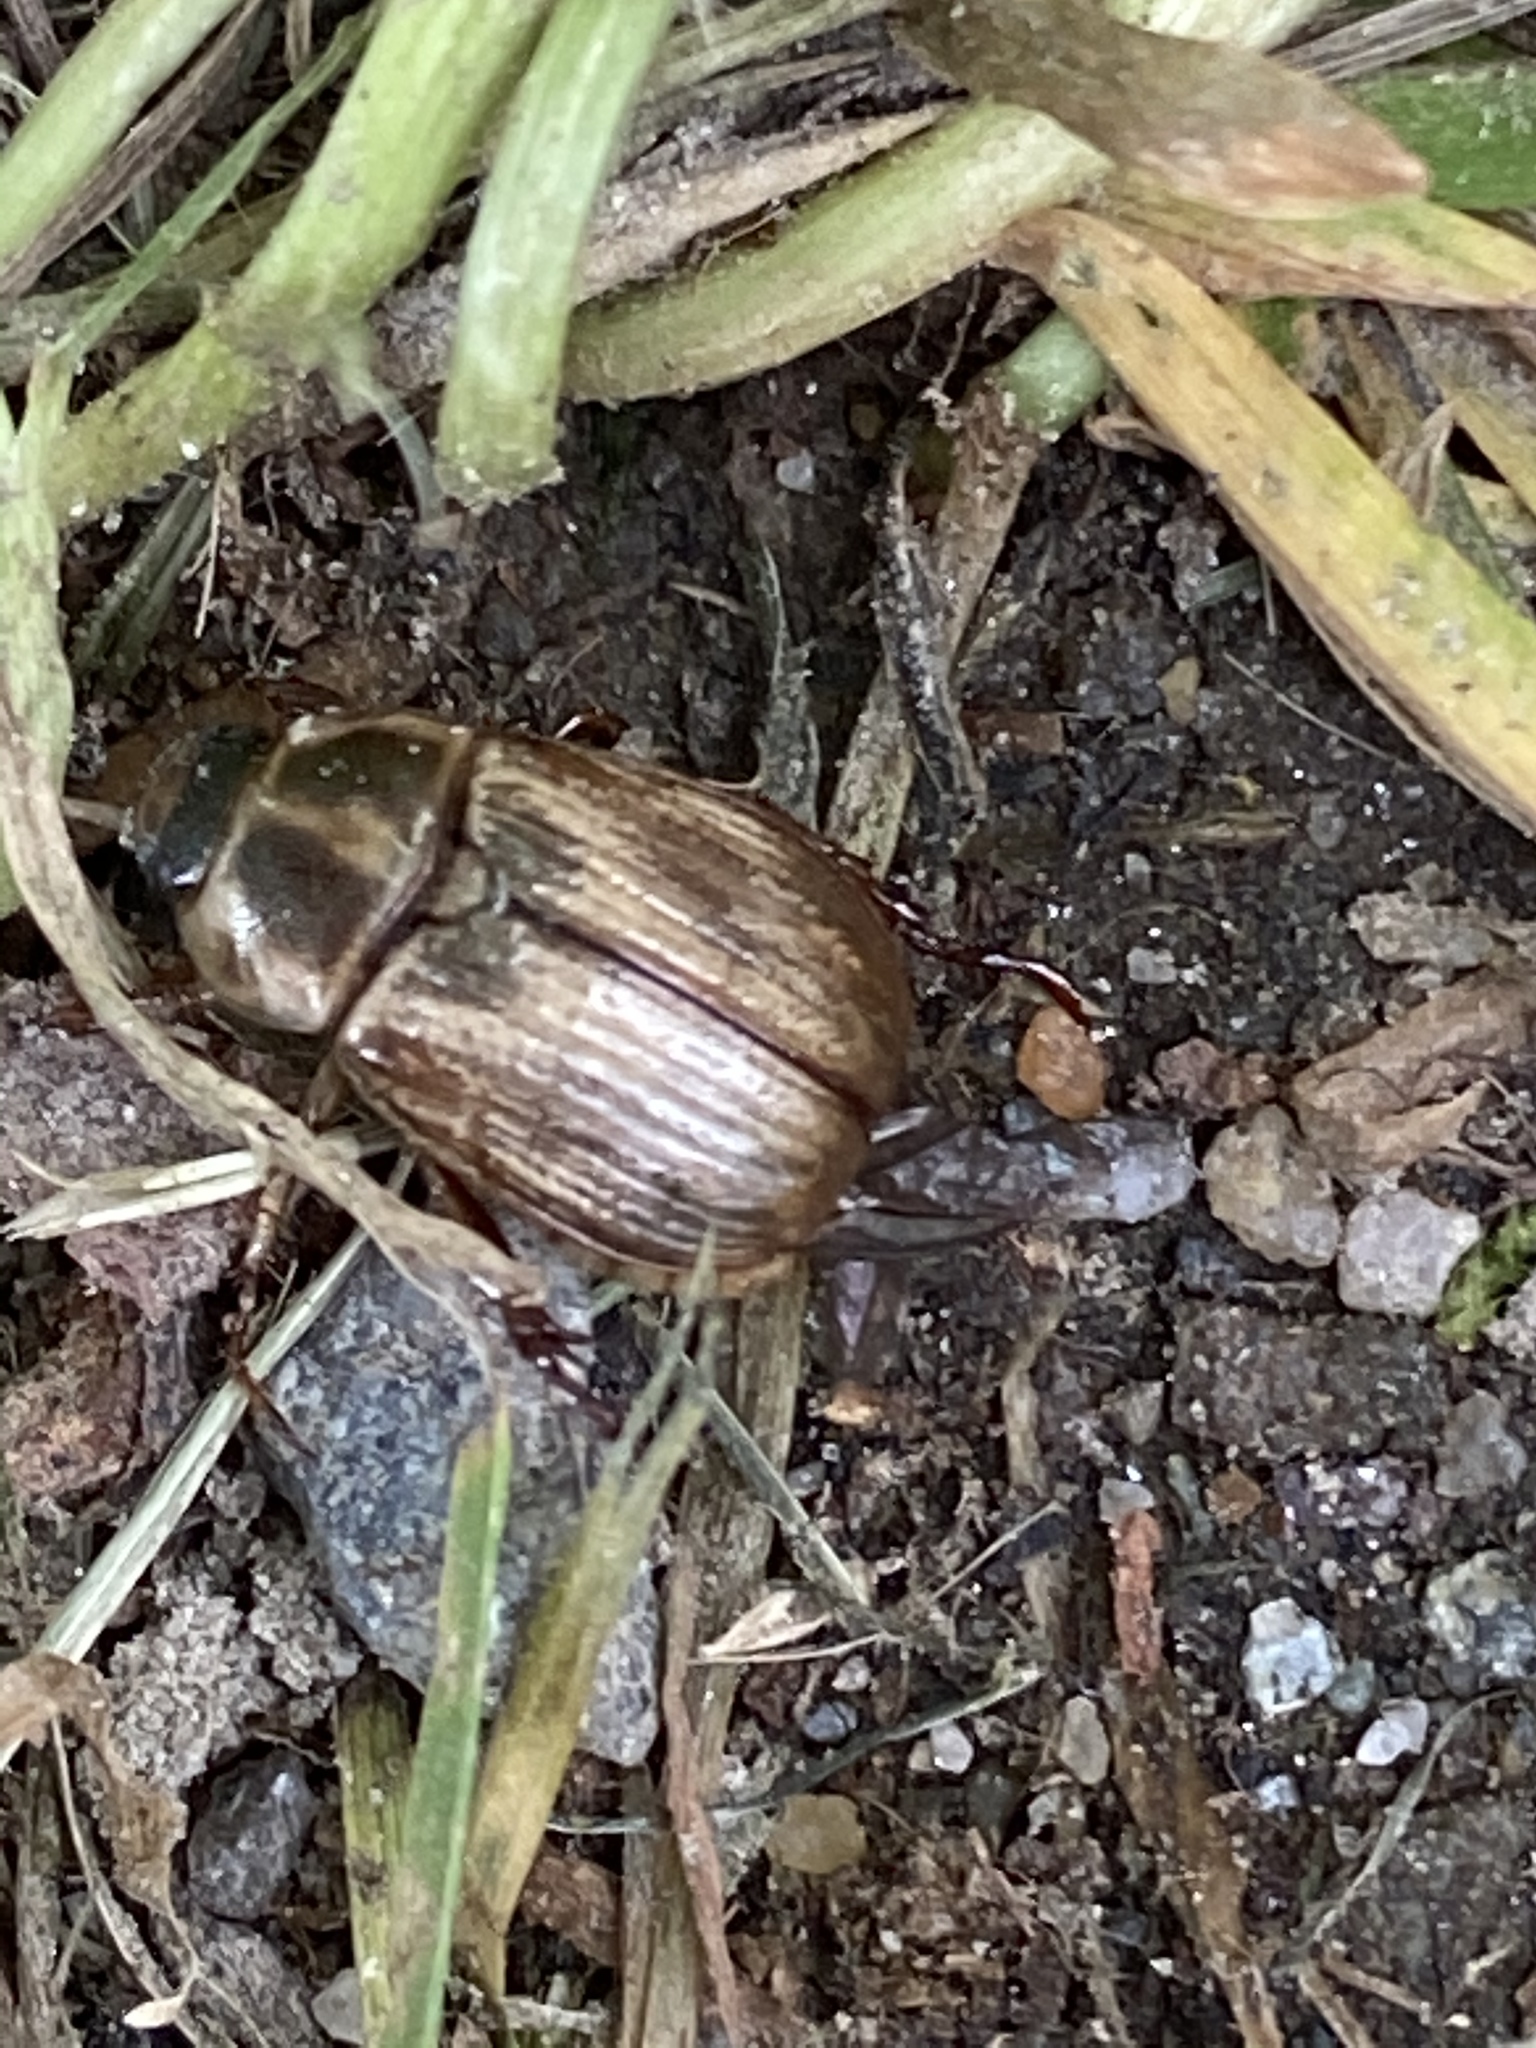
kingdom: Animalia
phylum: Arthropoda
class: Insecta
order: Coleoptera
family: Scarabaeidae
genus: Exomala
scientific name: Exomala orientalis
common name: Oriental beetle
